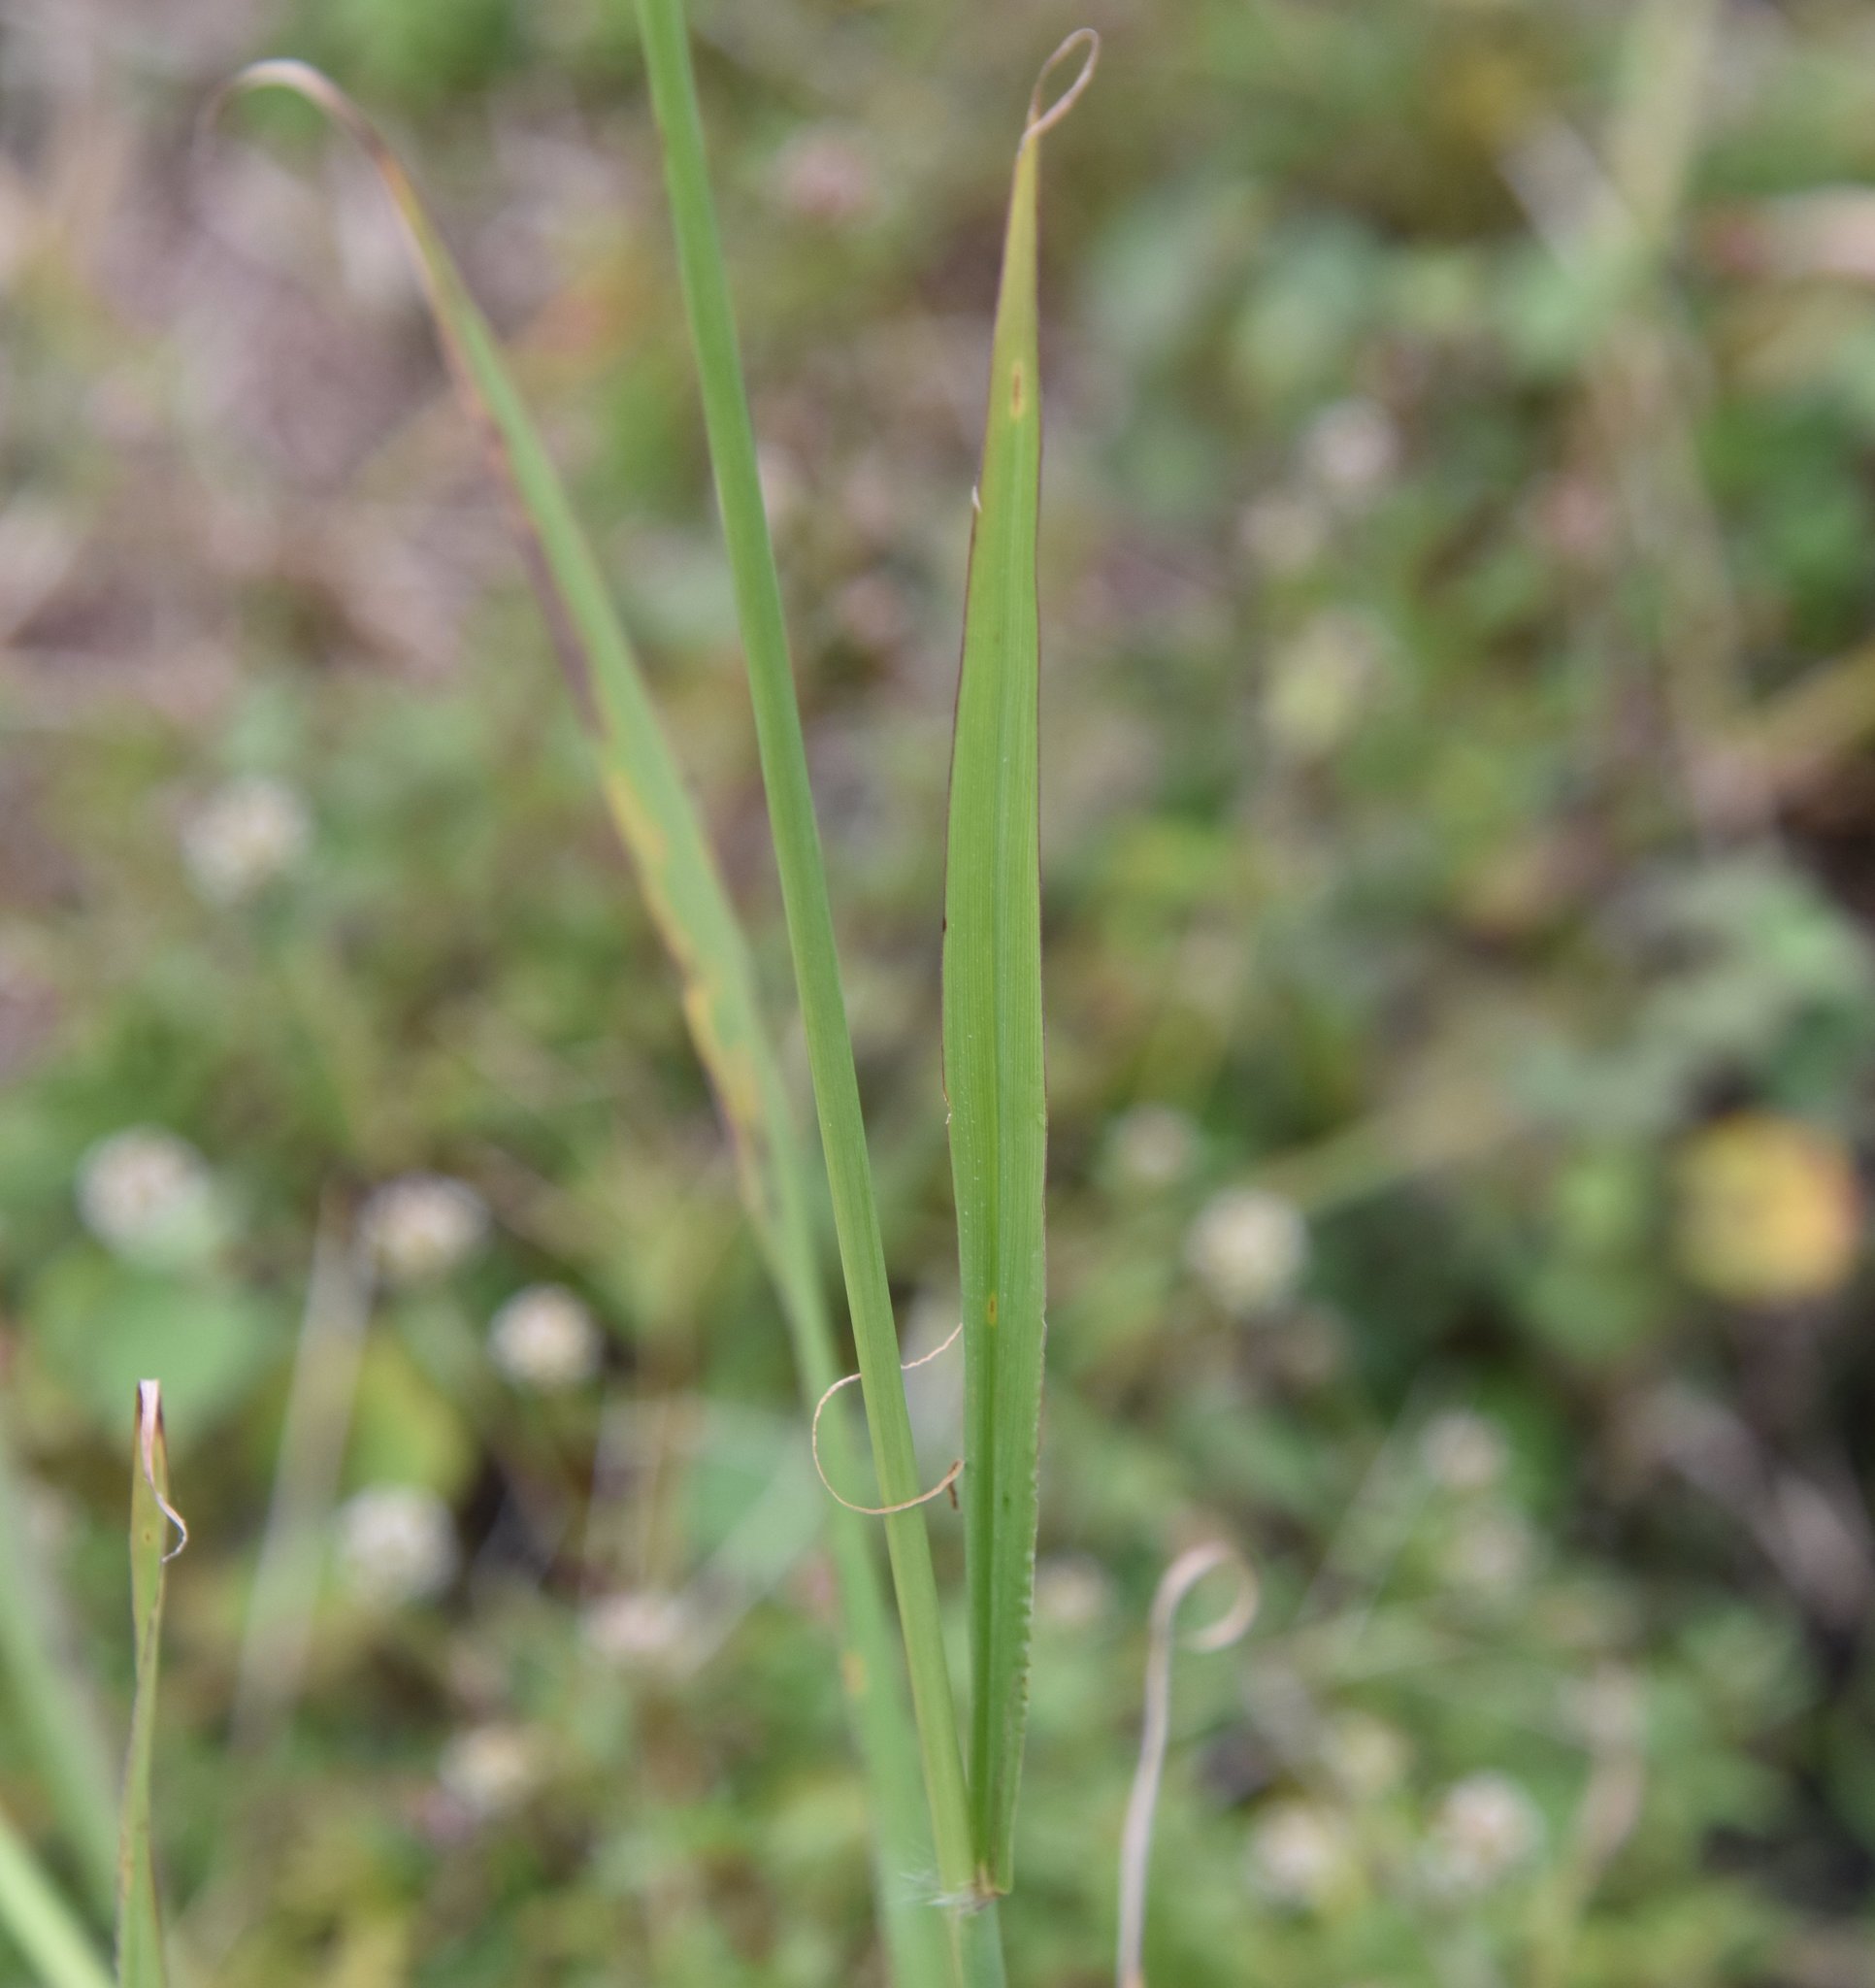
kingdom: Plantae
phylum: Tracheophyta
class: Liliopsida
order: Poales
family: Poaceae
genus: Paspalum
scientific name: Paspalum urvillei
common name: Vasey's grass
